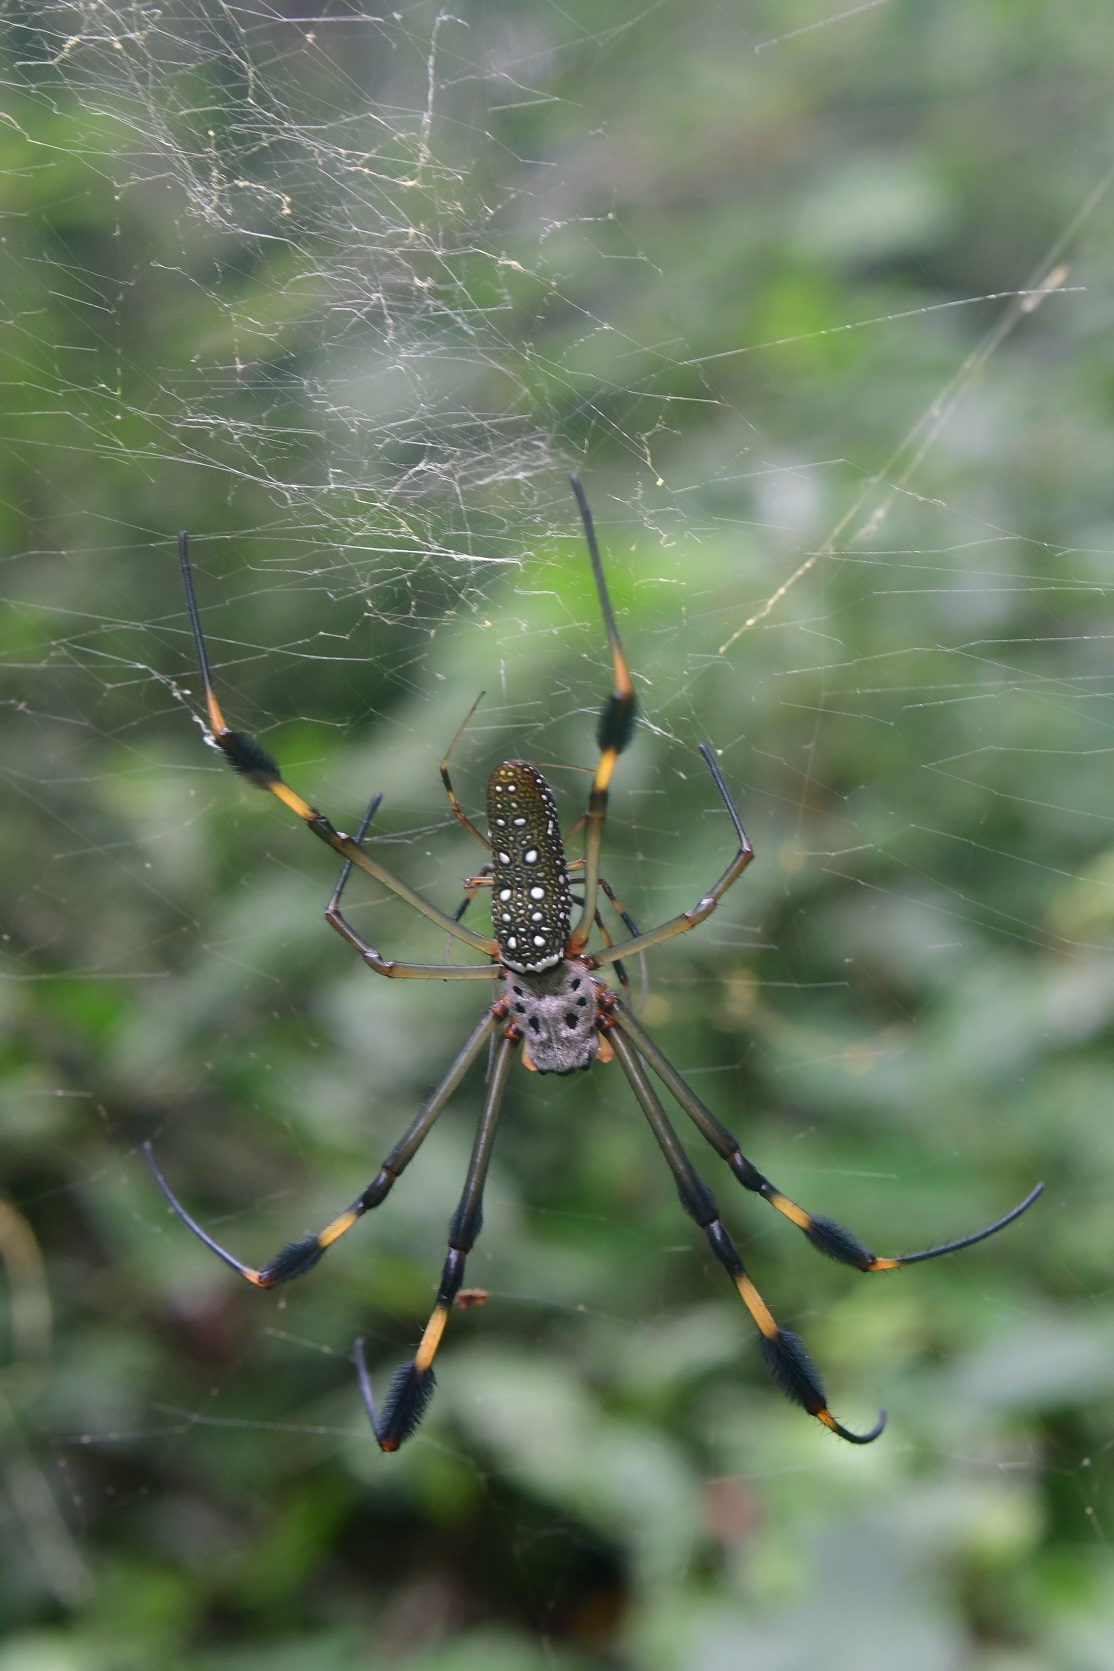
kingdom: Animalia
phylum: Arthropoda
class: Arachnida
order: Araneae
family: Araneidae
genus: Trichonephila
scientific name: Trichonephila clavipes
